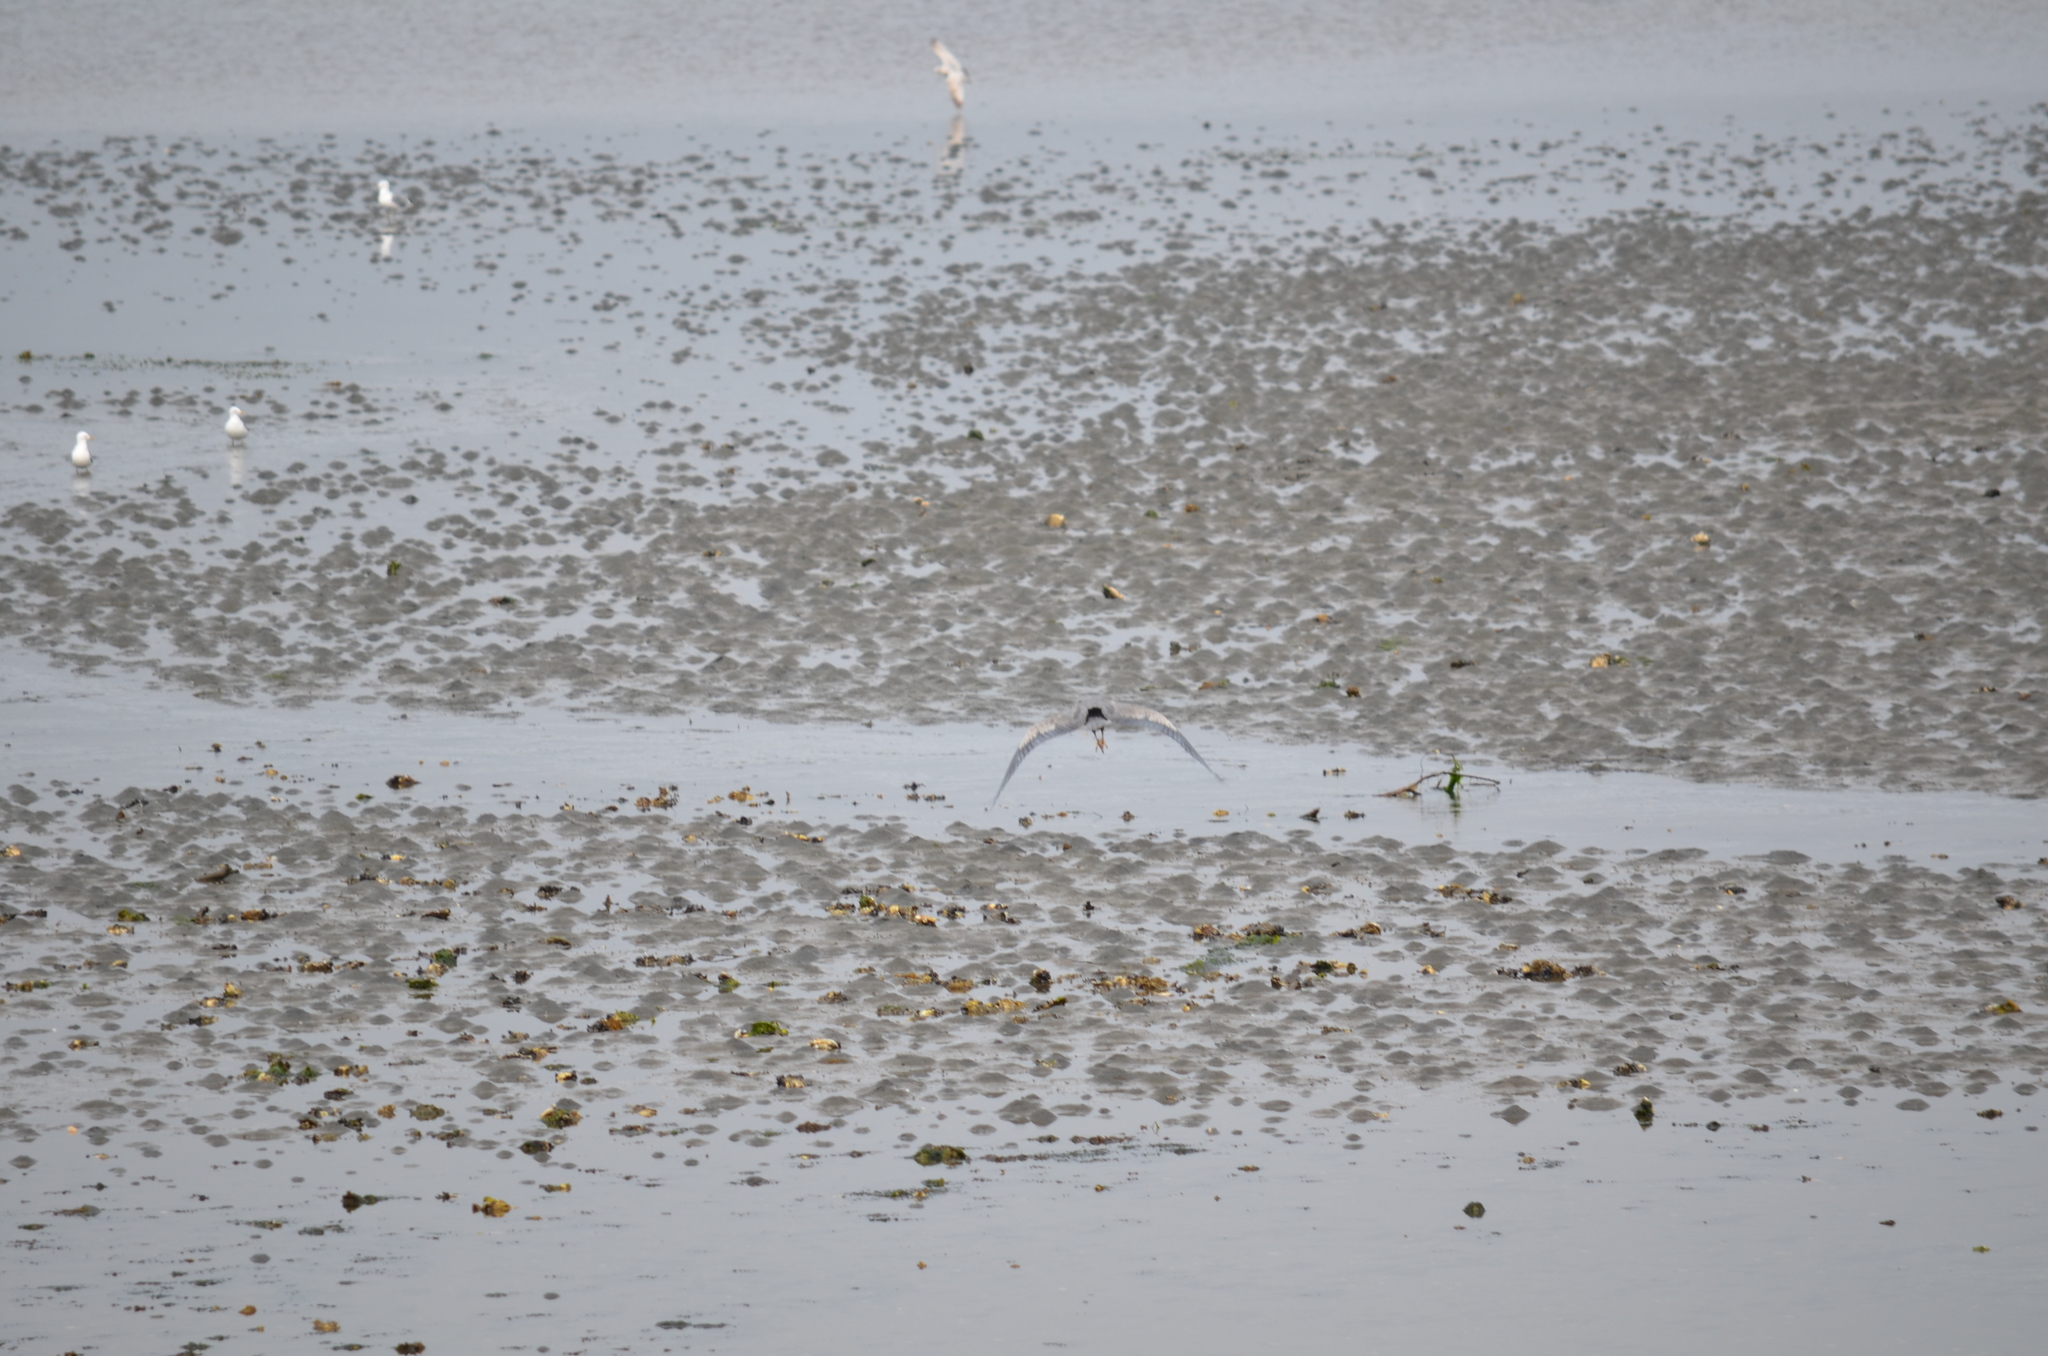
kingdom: Animalia
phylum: Chordata
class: Aves
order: Pelecaniformes
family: Ardeidae
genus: Ardea
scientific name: Ardea herodias
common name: Great blue heron
